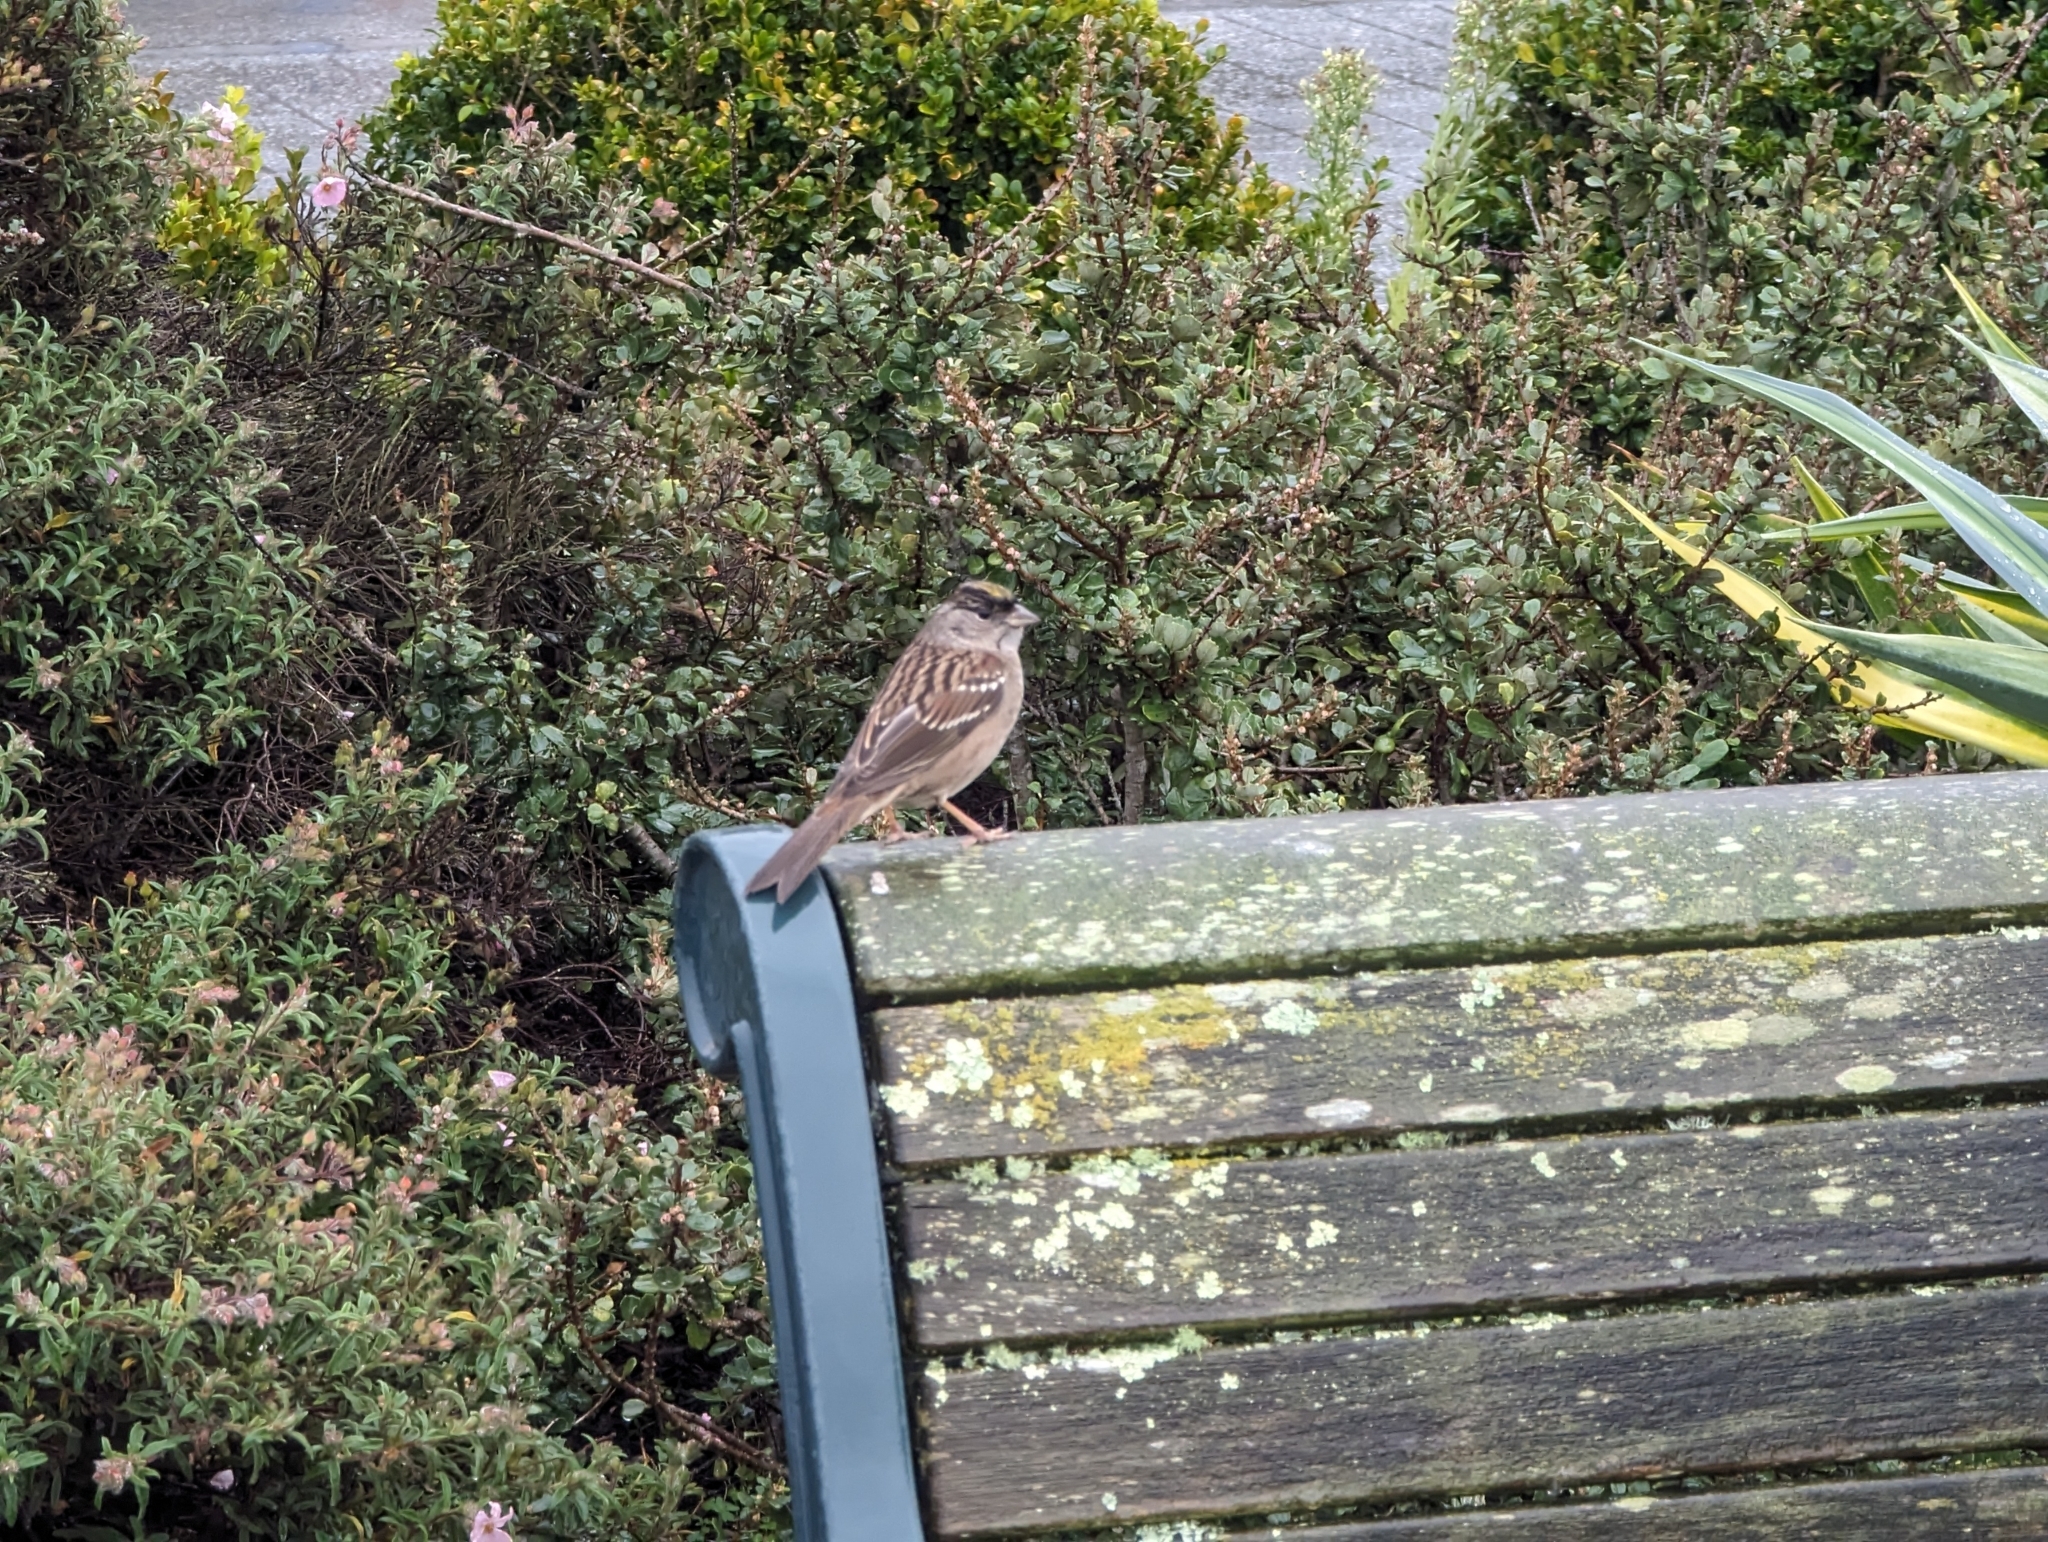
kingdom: Animalia
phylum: Chordata
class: Aves
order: Passeriformes
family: Passerellidae
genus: Zonotrichia
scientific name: Zonotrichia atricapilla
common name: Golden-crowned sparrow
